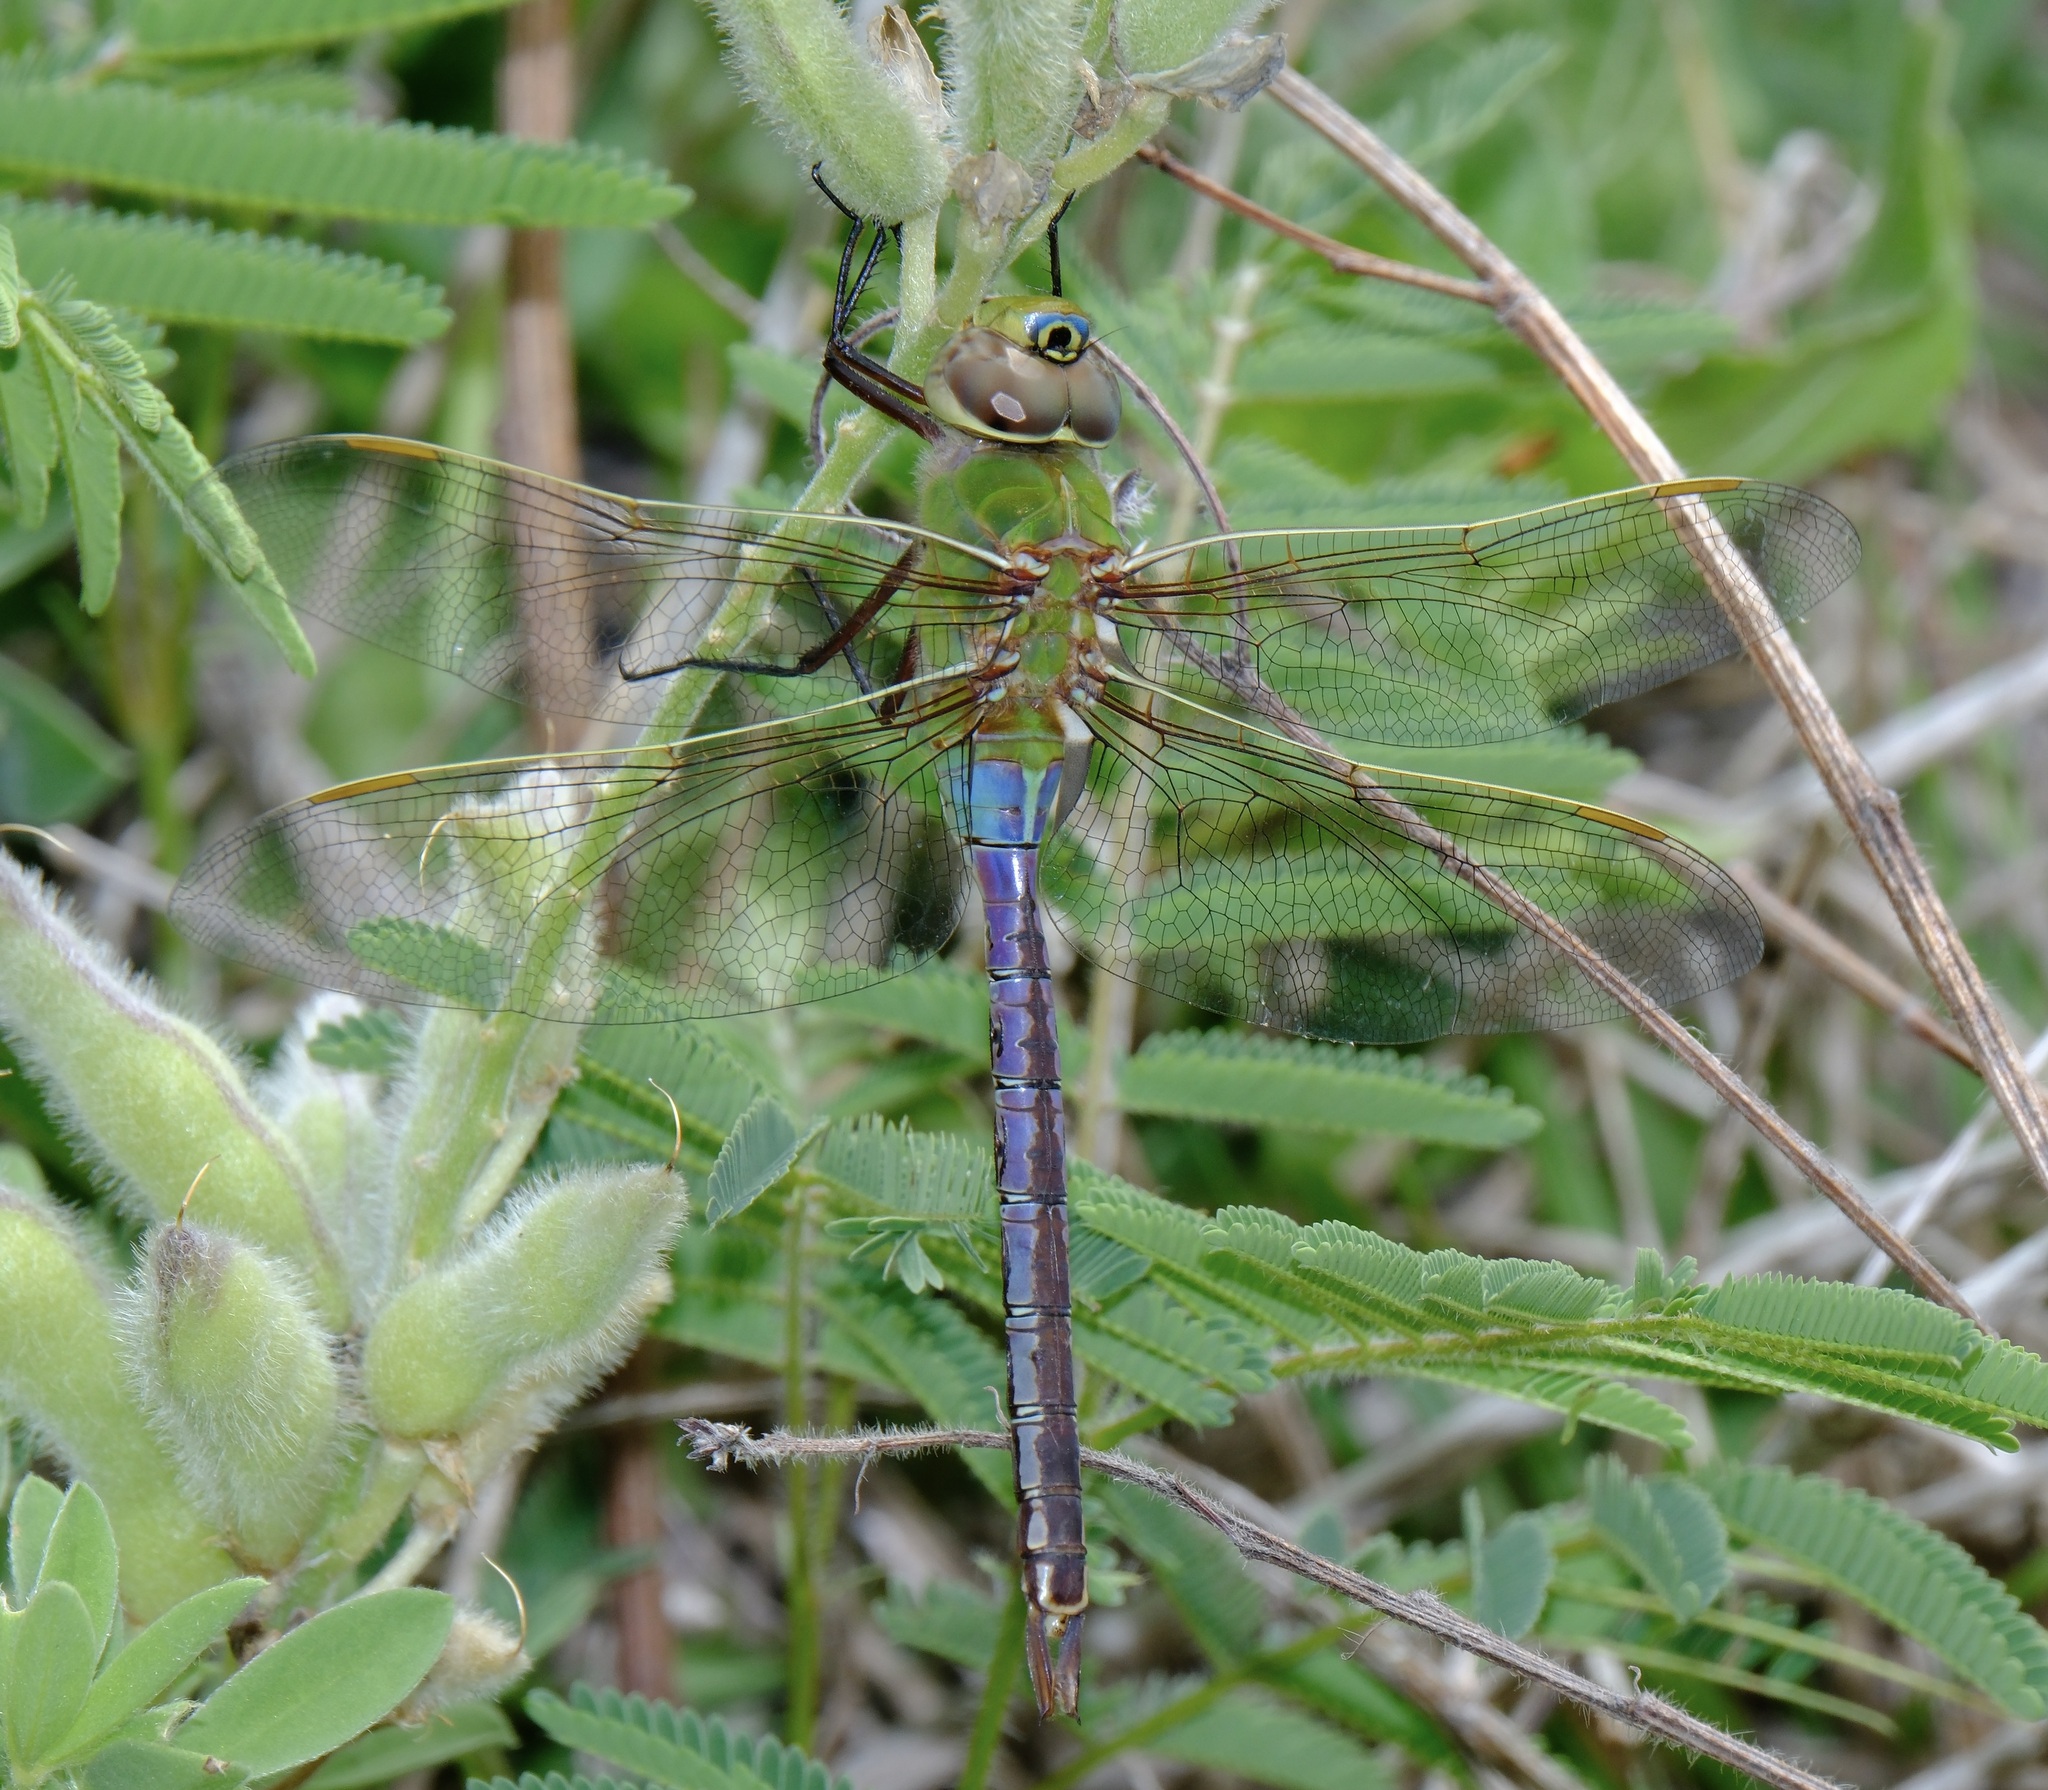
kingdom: Animalia
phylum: Arthropoda
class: Insecta
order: Odonata
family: Aeshnidae
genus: Anax
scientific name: Anax junius
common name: Common green darner
